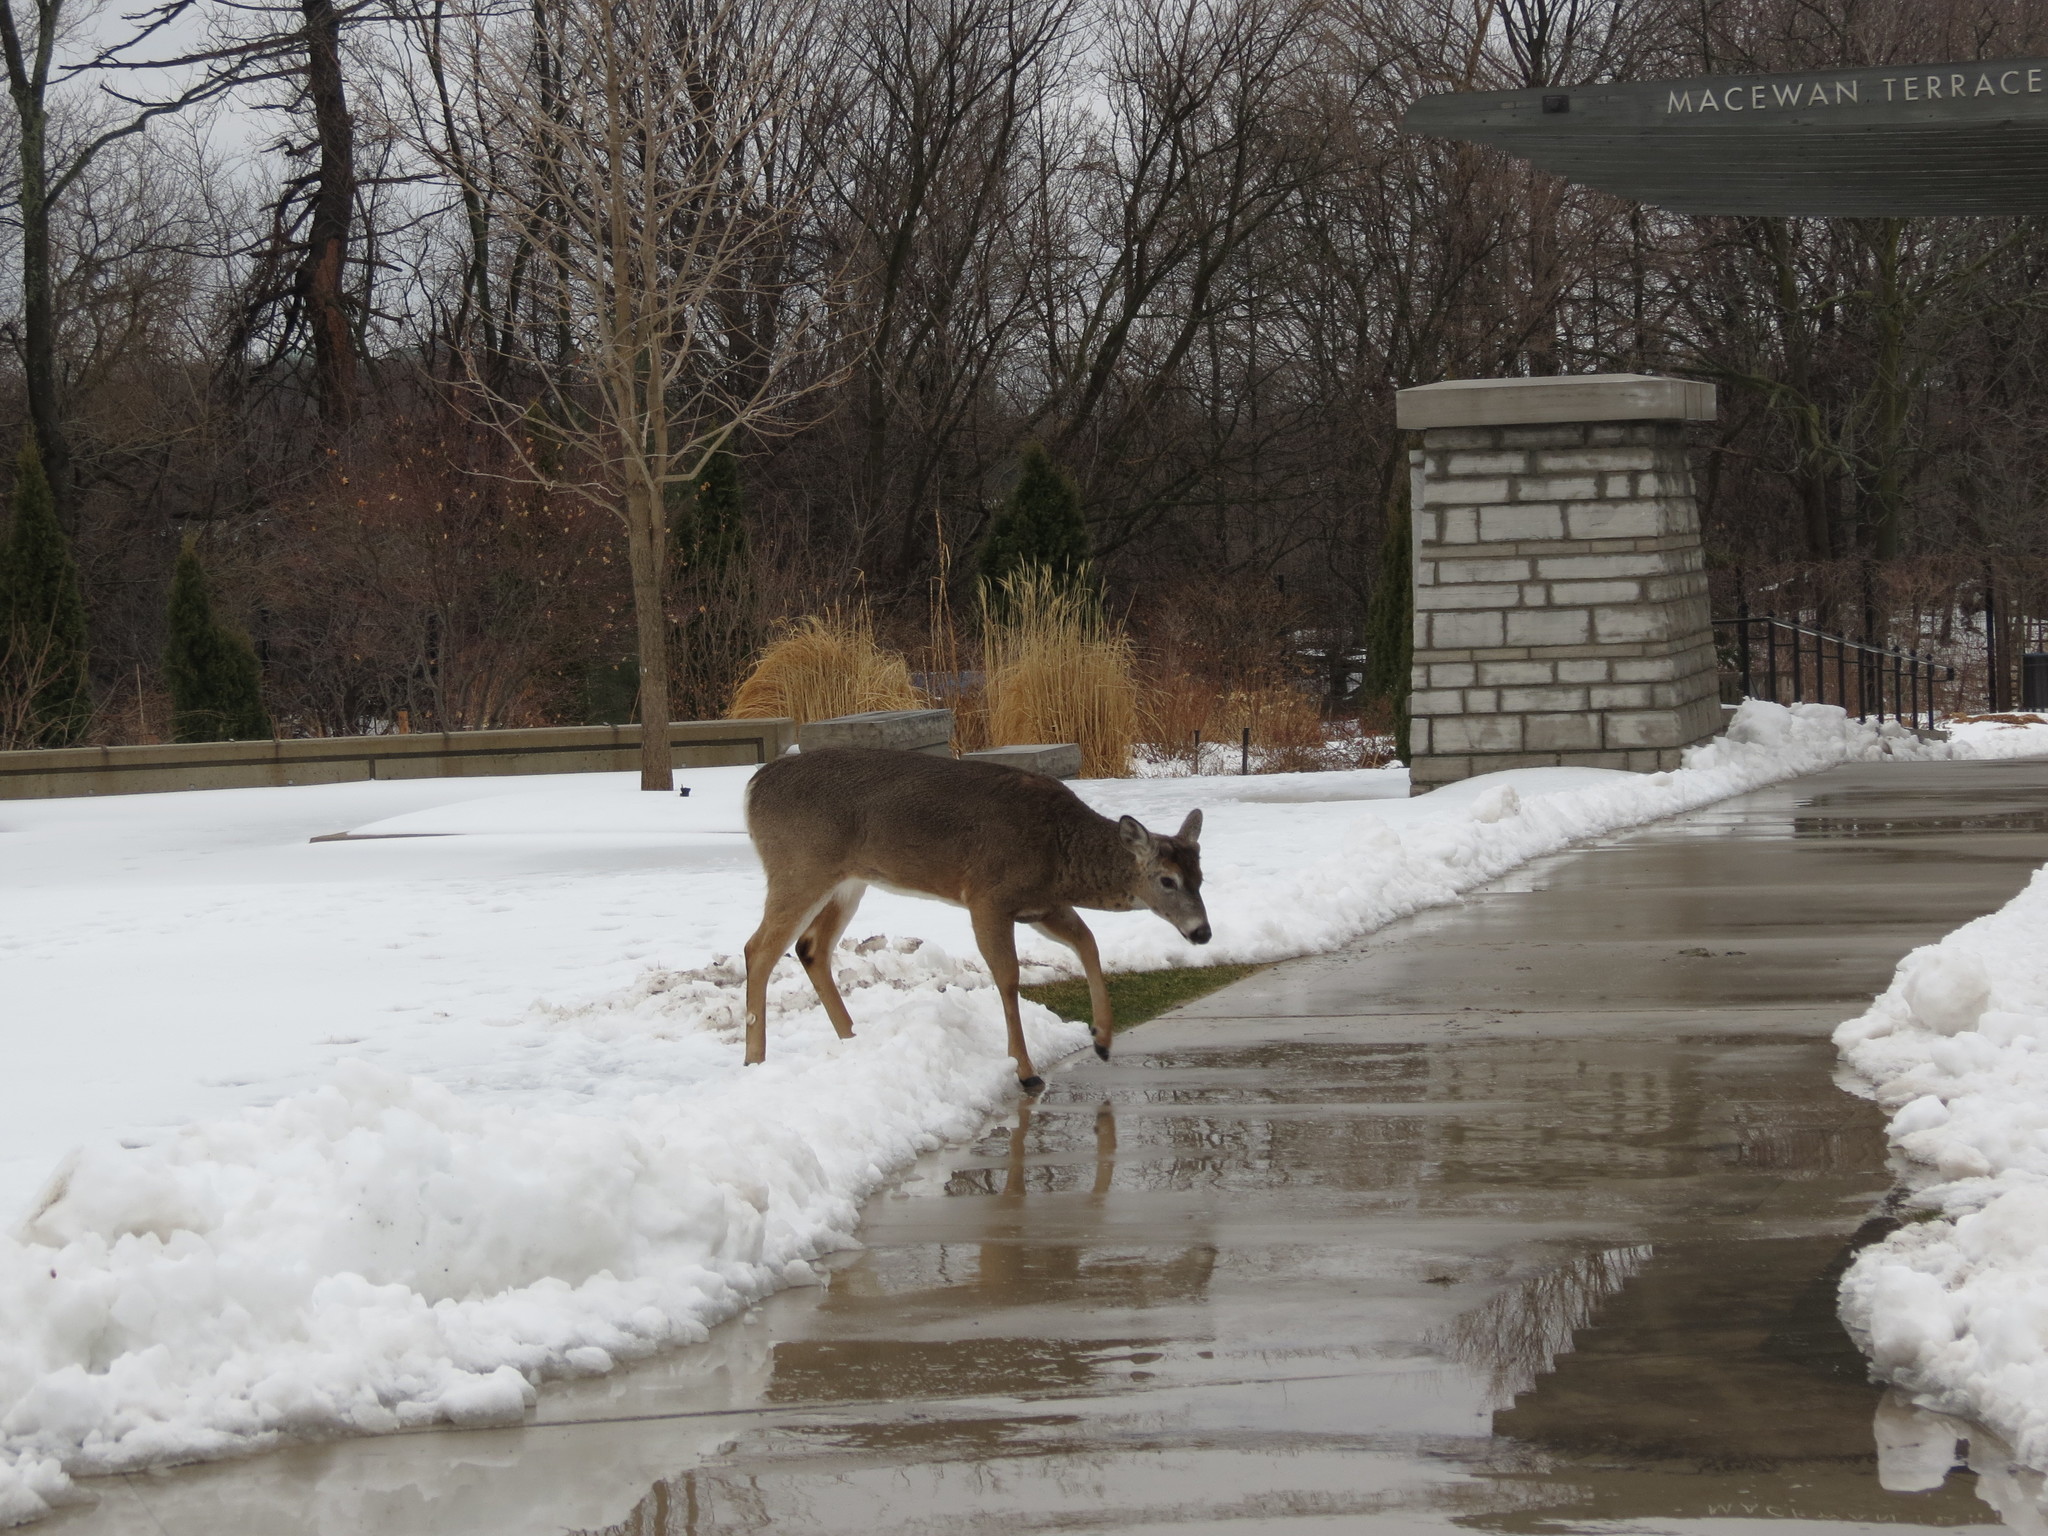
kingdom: Animalia
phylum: Chordata
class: Mammalia
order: Artiodactyla
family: Cervidae
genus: Odocoileus
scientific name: Odocoileus virginianus
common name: White-tailed deer
